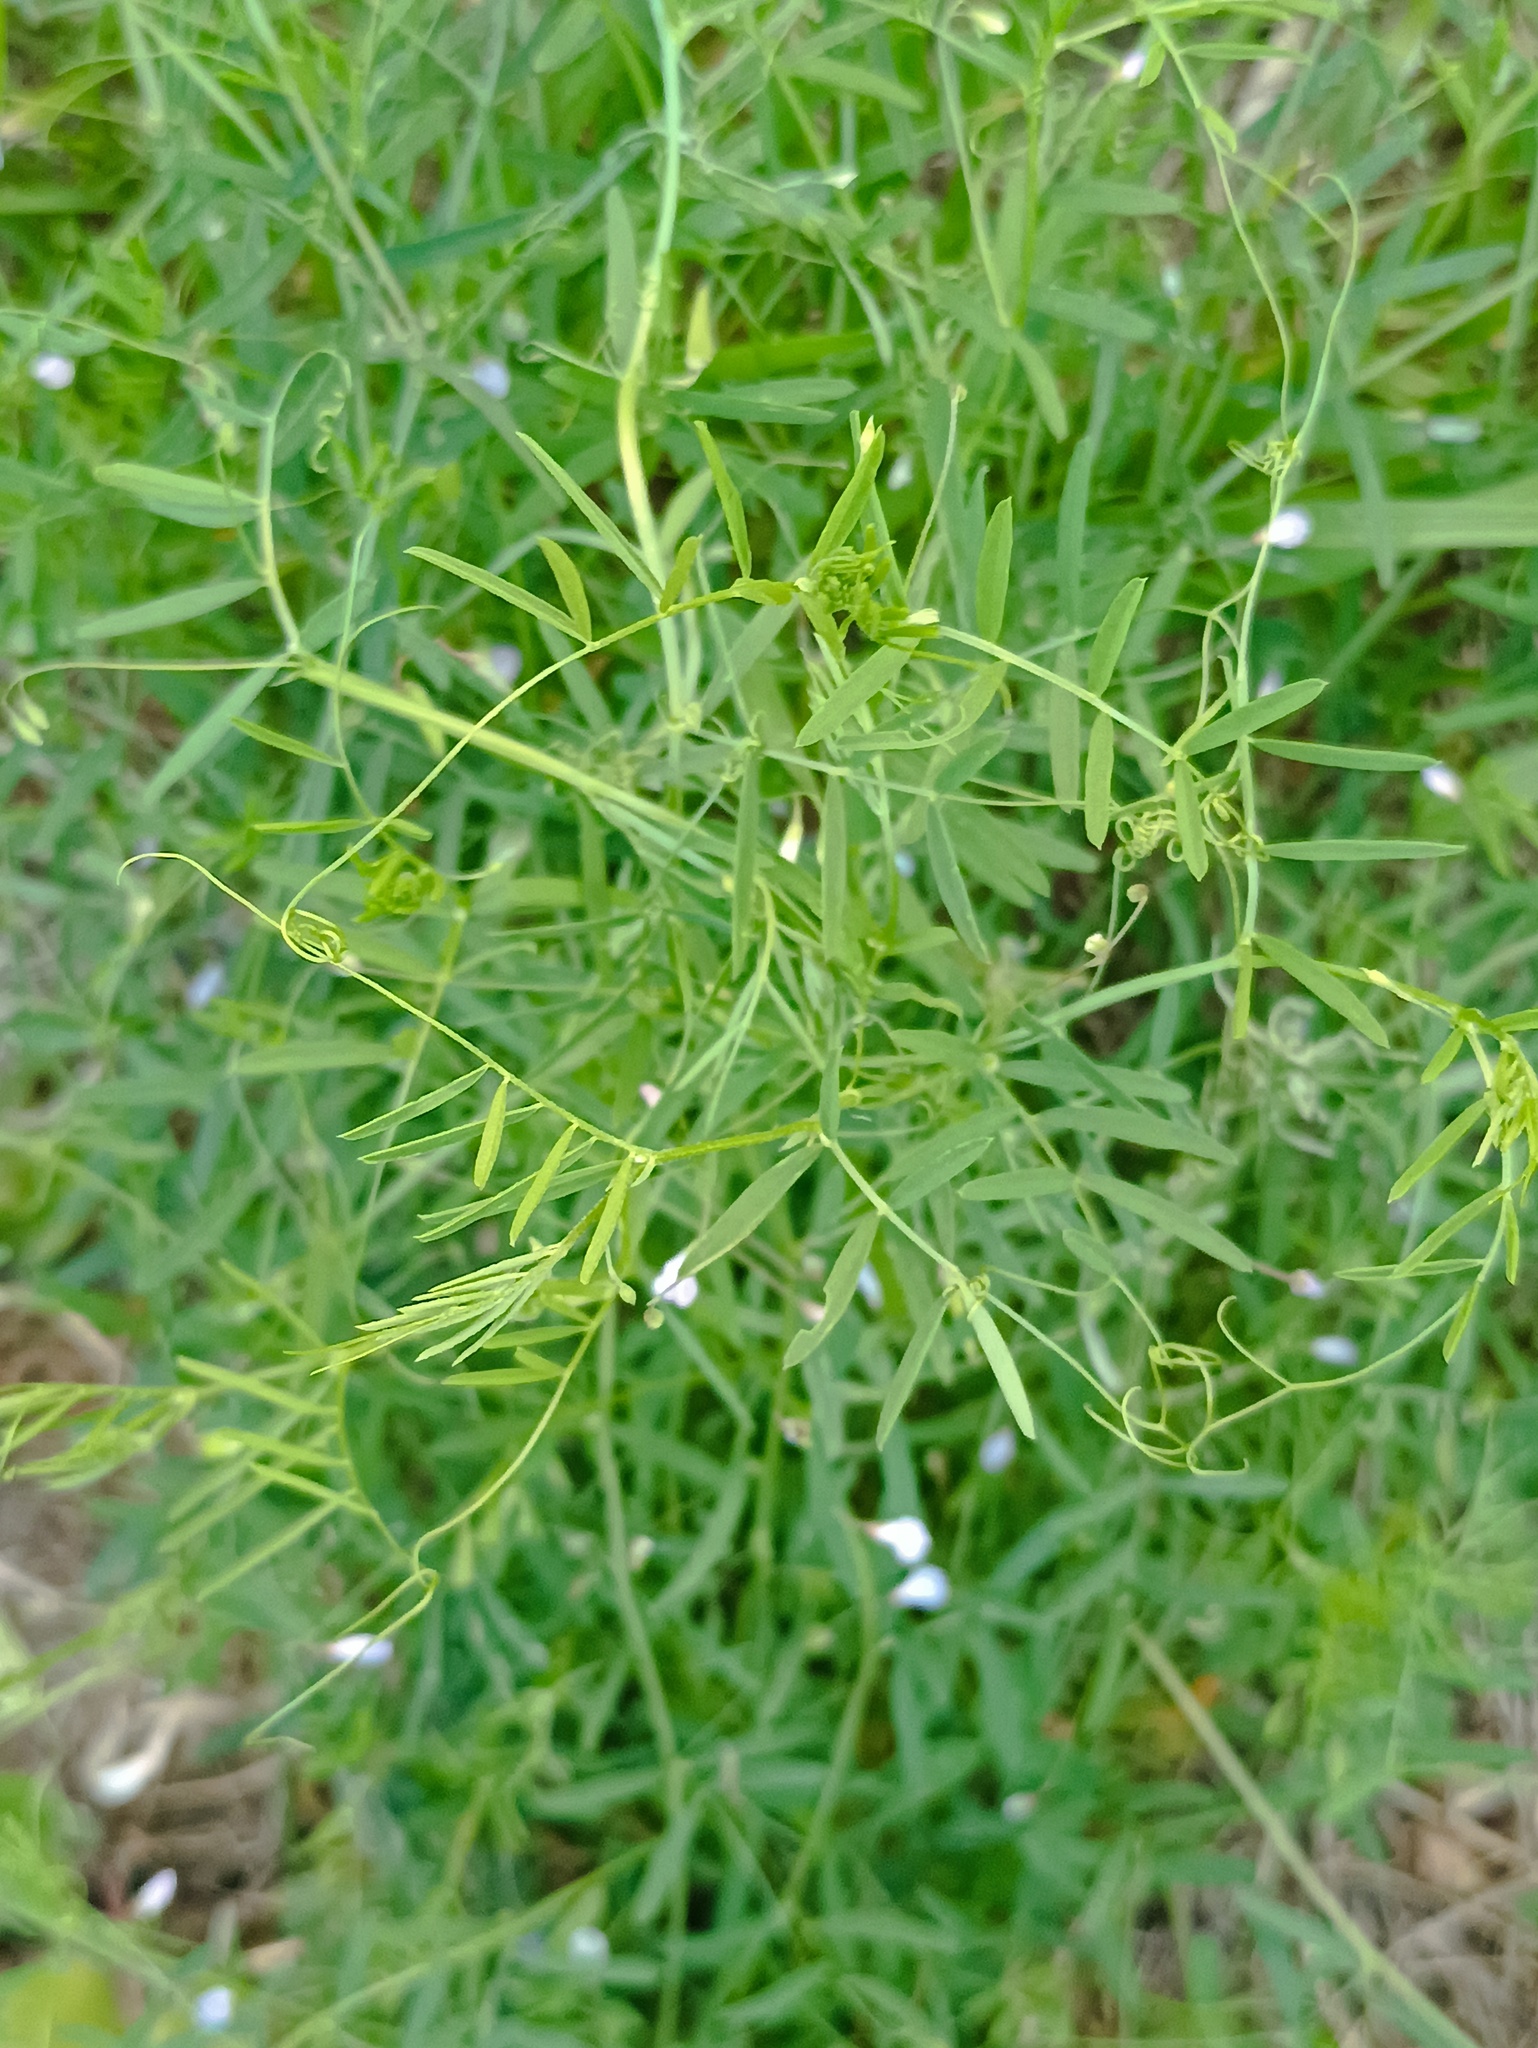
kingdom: Plantae
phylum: Tracheophyta
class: Magnoliopsida
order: Fabales
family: Fabaceae
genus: Vicia
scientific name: Vicia tetrasperma
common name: Smooth tare
